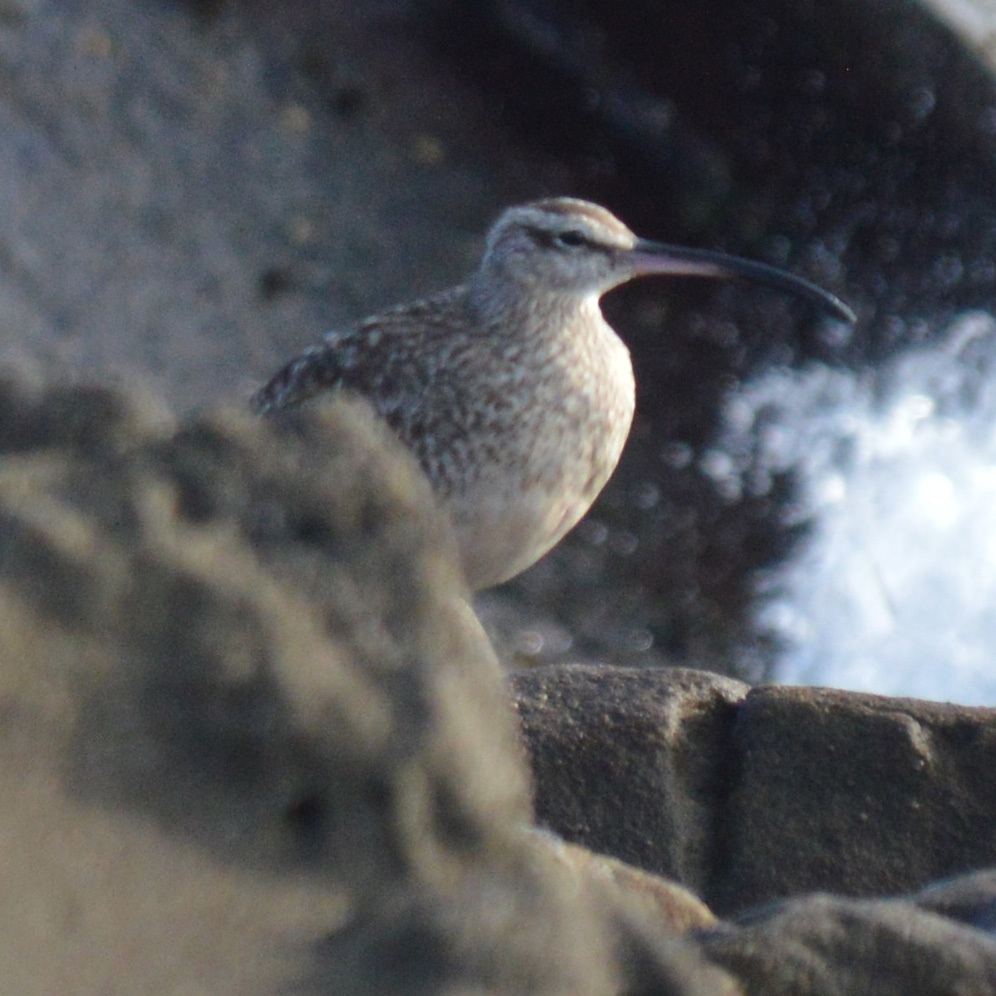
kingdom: Animalia
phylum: Chordata
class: Aves
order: Charadriiformes
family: Scolopacidae
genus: Numenius
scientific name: Numenius phaeopus
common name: Whimbrel
